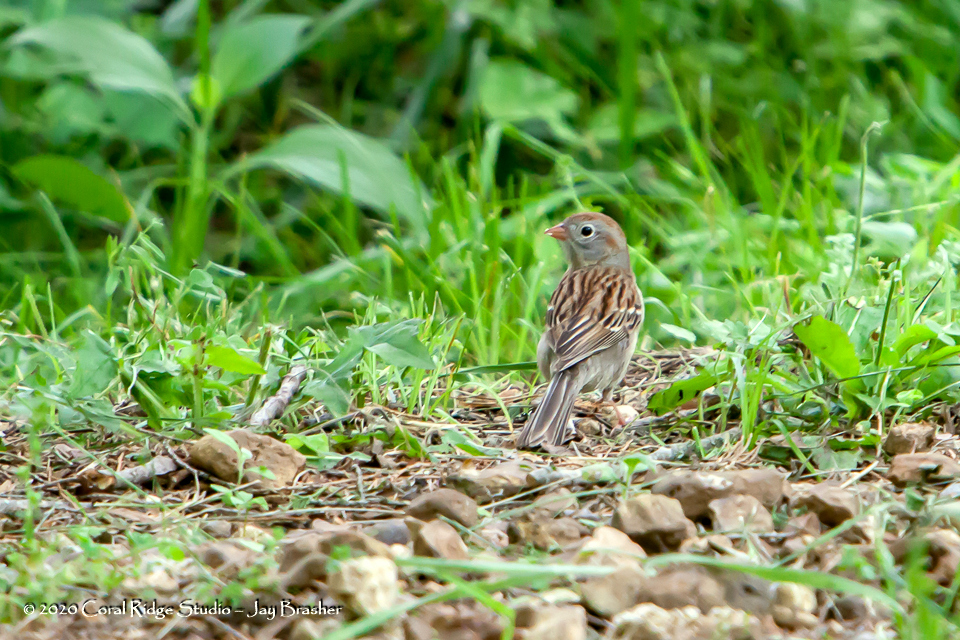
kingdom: Animalia
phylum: Chordata
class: Aves
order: Passeriformes
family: Passerellidae
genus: Spizella
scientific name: Spizella pusilla
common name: Field sparrow
